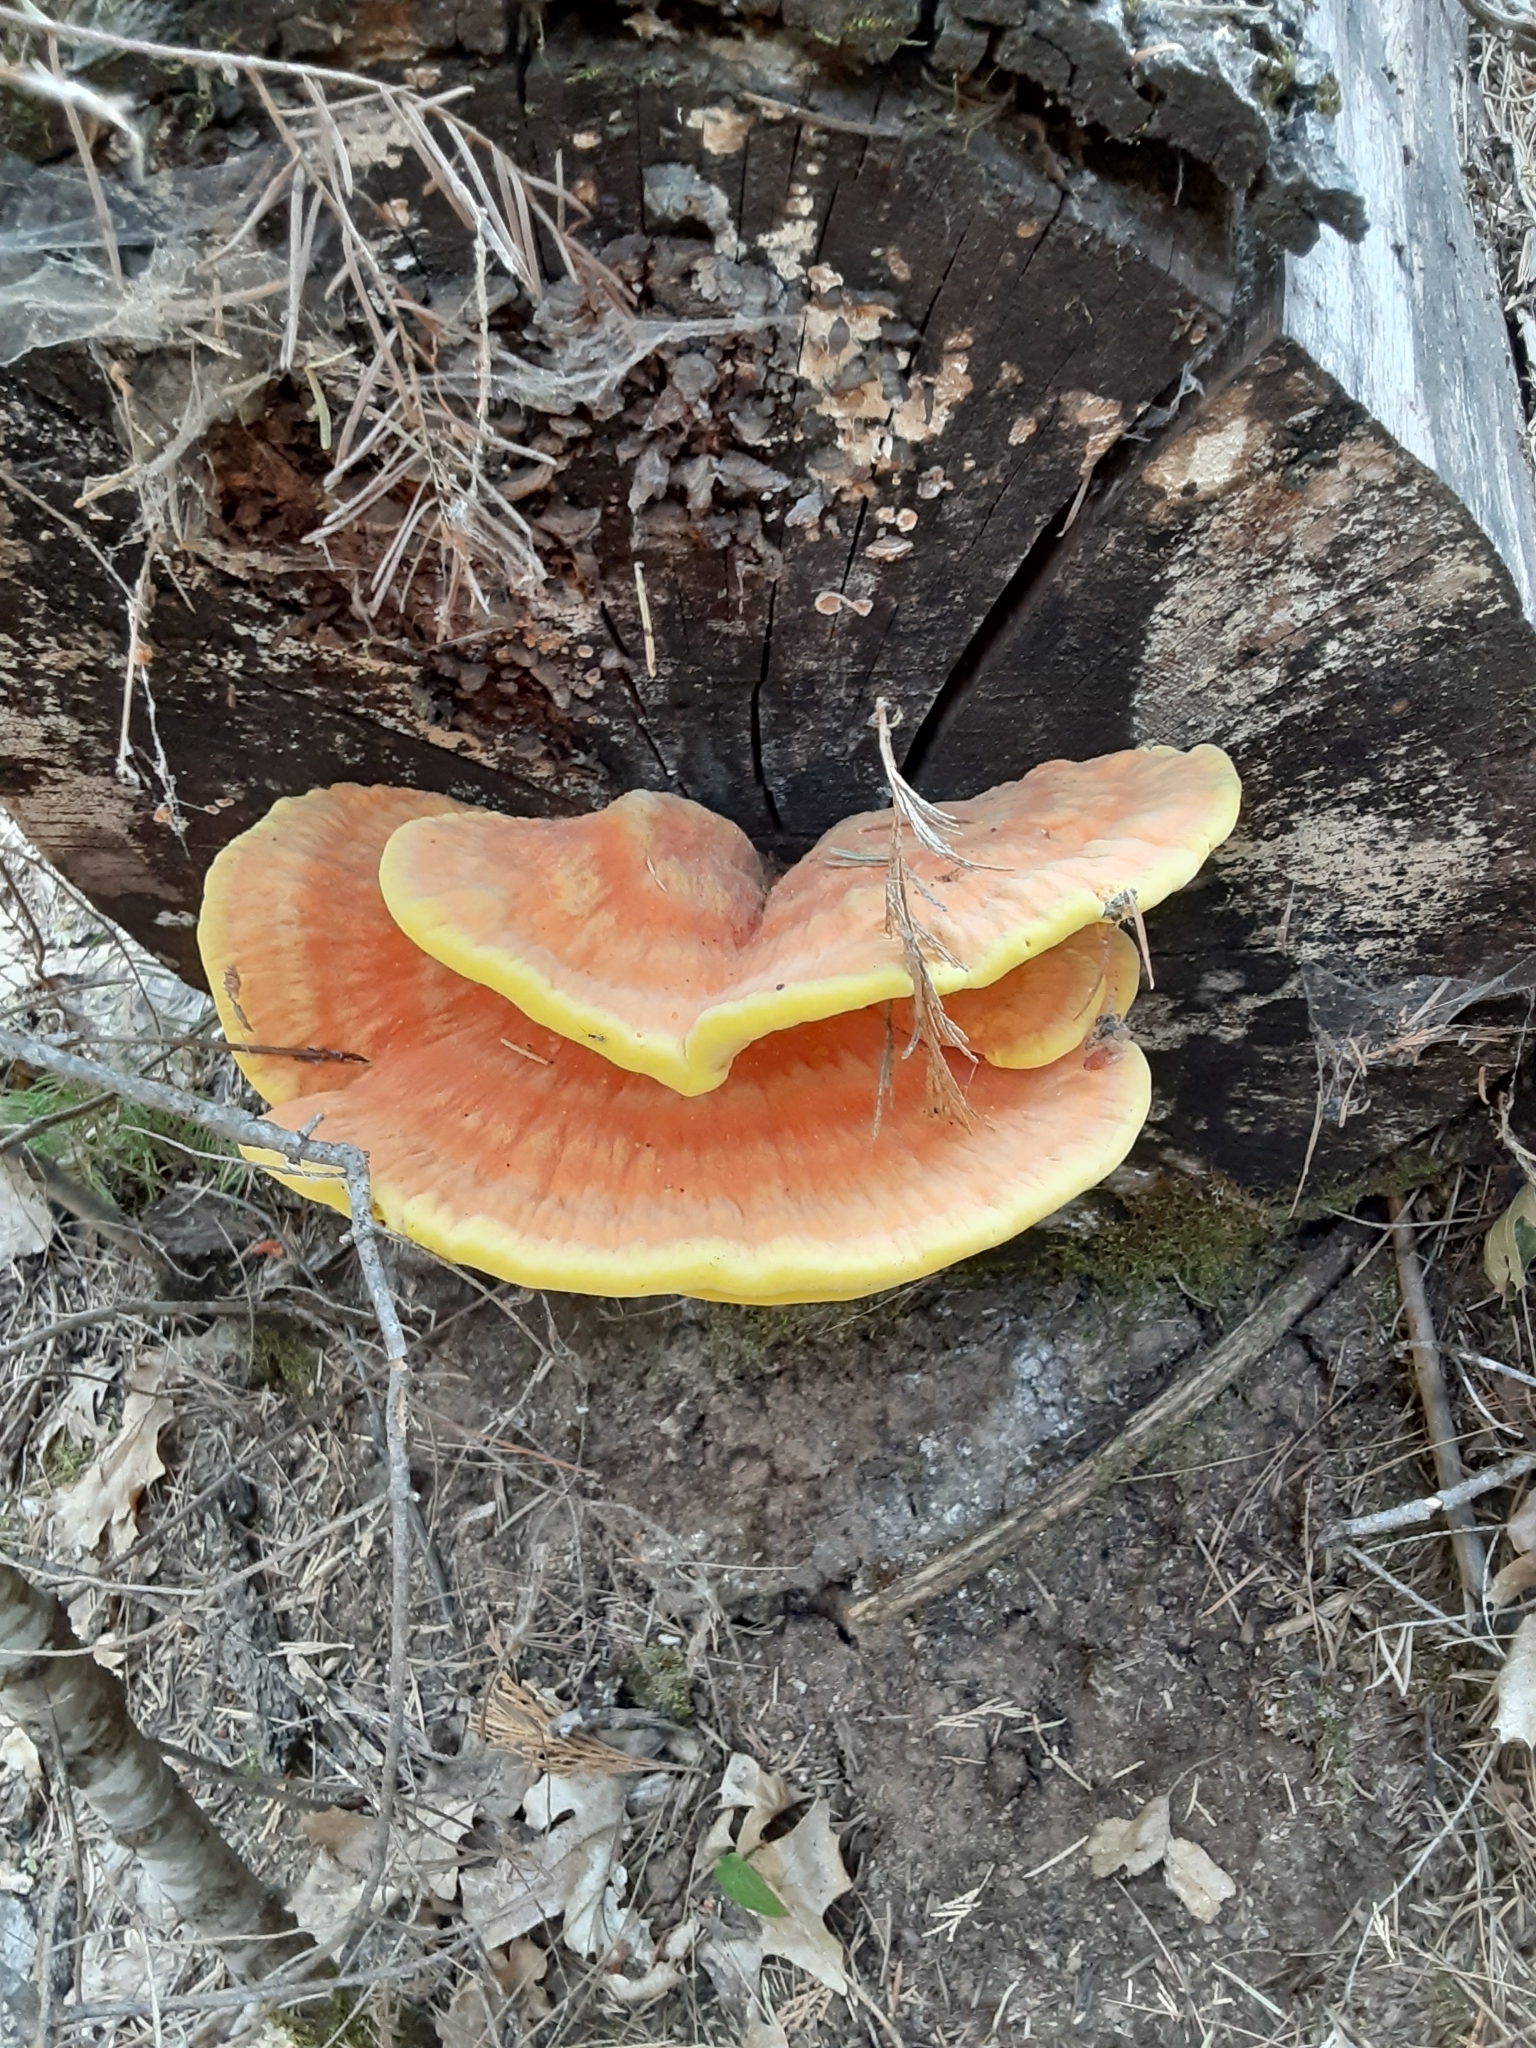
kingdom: Fungi
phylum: Basidiomycota
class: Agaricomycetes
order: Polyporales
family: Laetiporaceae
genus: Laetiporus
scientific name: Laetiporus gilbertsonii
